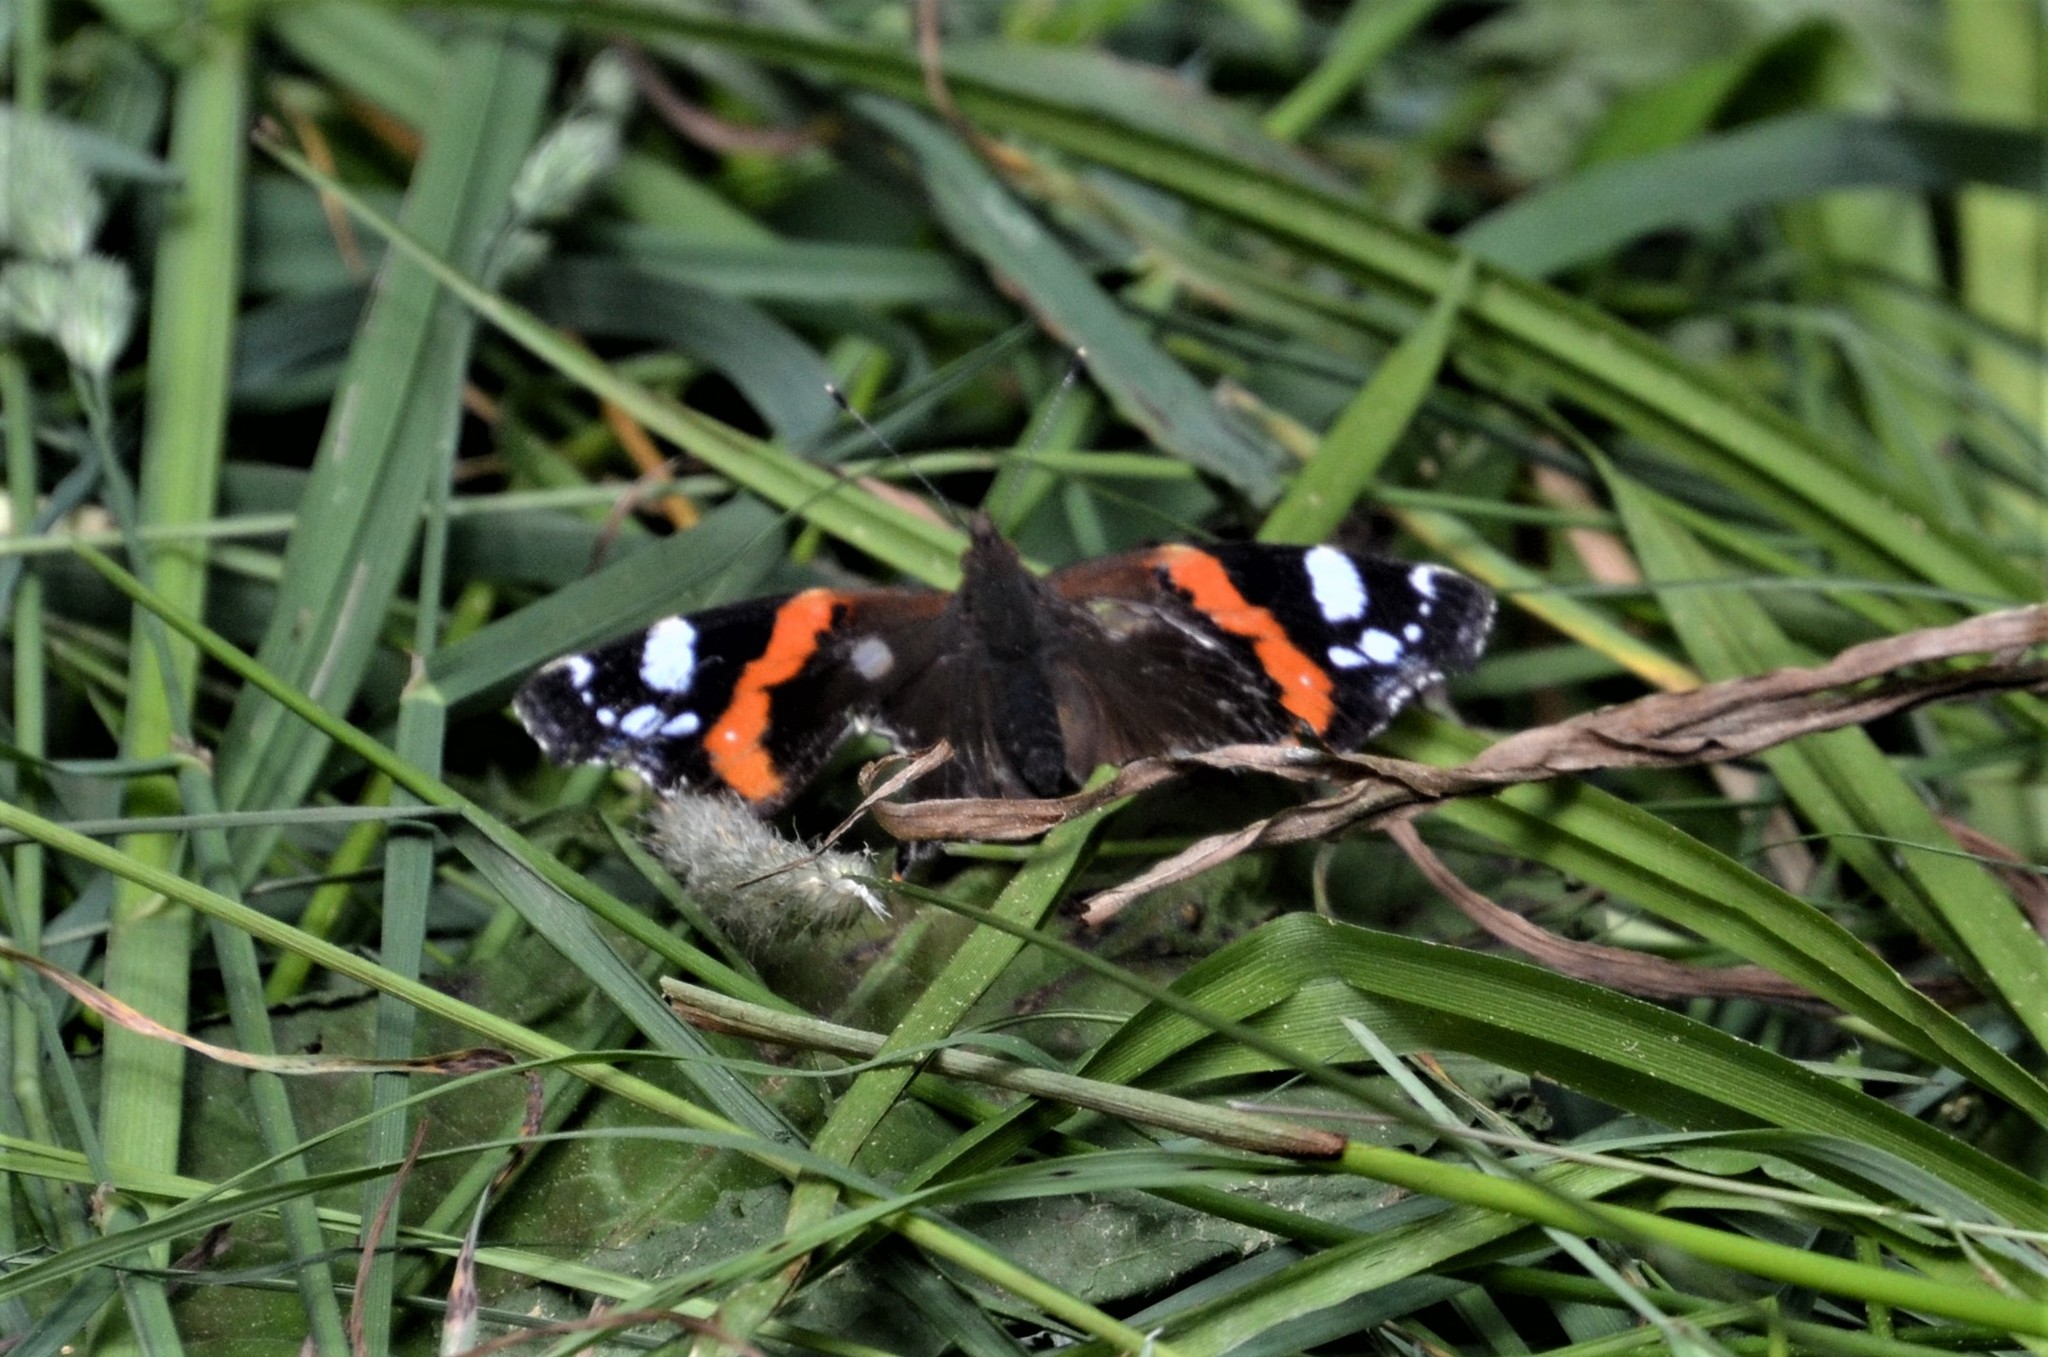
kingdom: Animalia
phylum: Arthropoda
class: Insecta
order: Lepidoptera
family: Nymphalidae
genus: Vanessa
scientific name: Vanessa atalanta
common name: Red admiral
